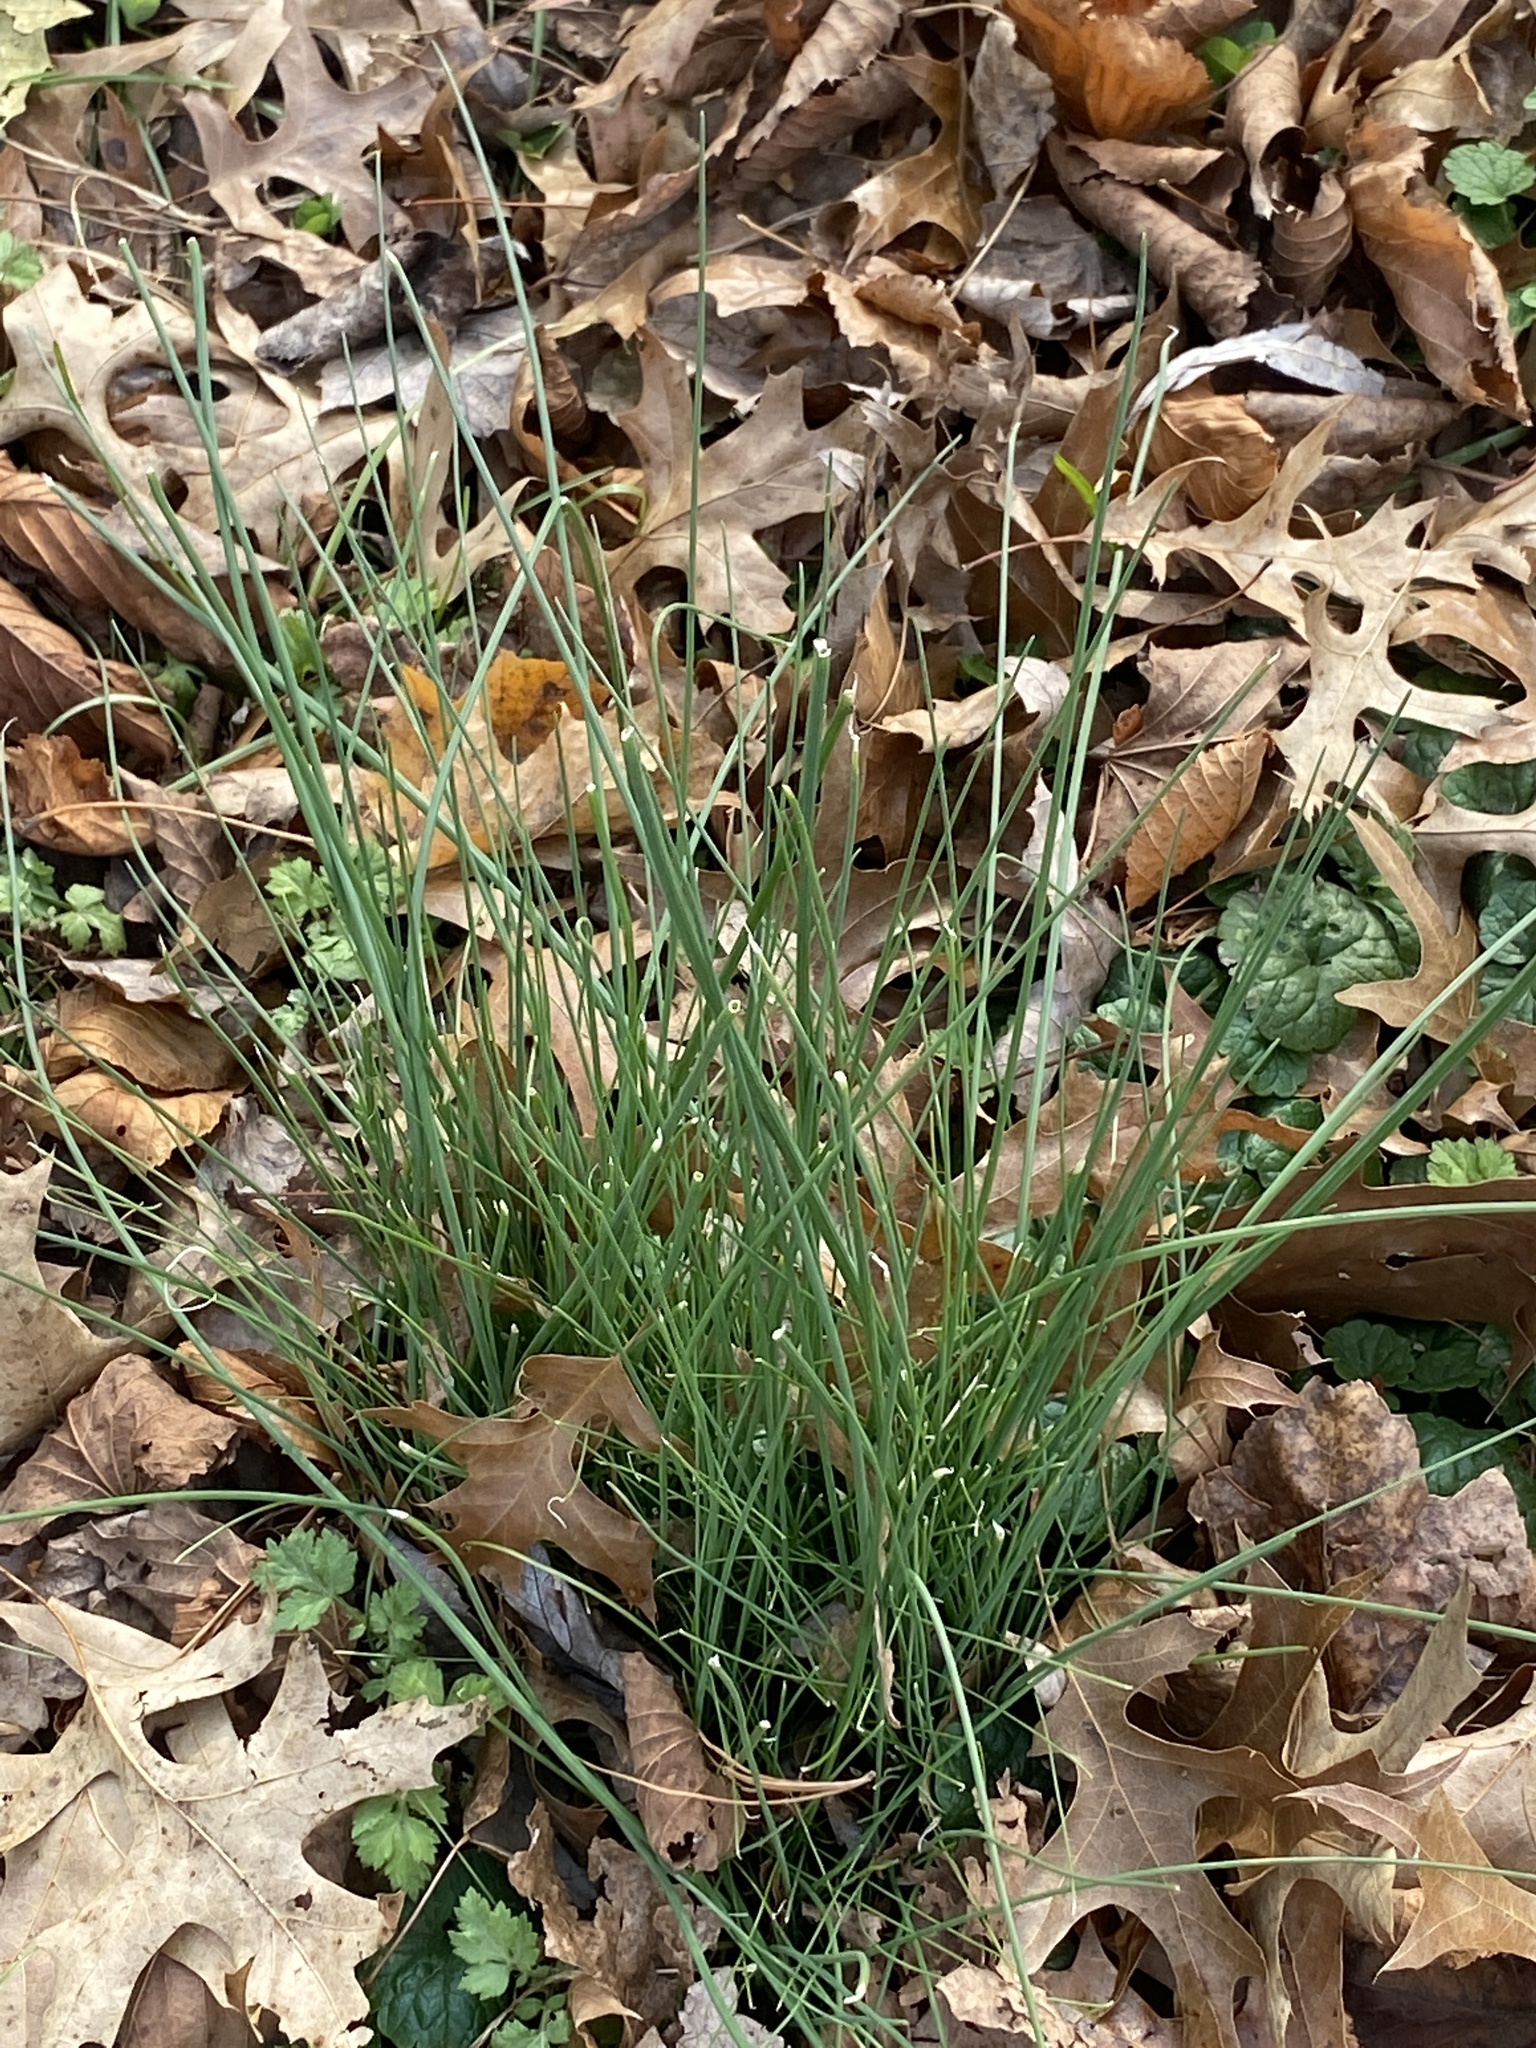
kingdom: Plantae
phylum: Tracheophyta
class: Liliopsida
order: Asparagales
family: Amaryllidaceae
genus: Allium
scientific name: Allium vineale
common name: Crow garlic
